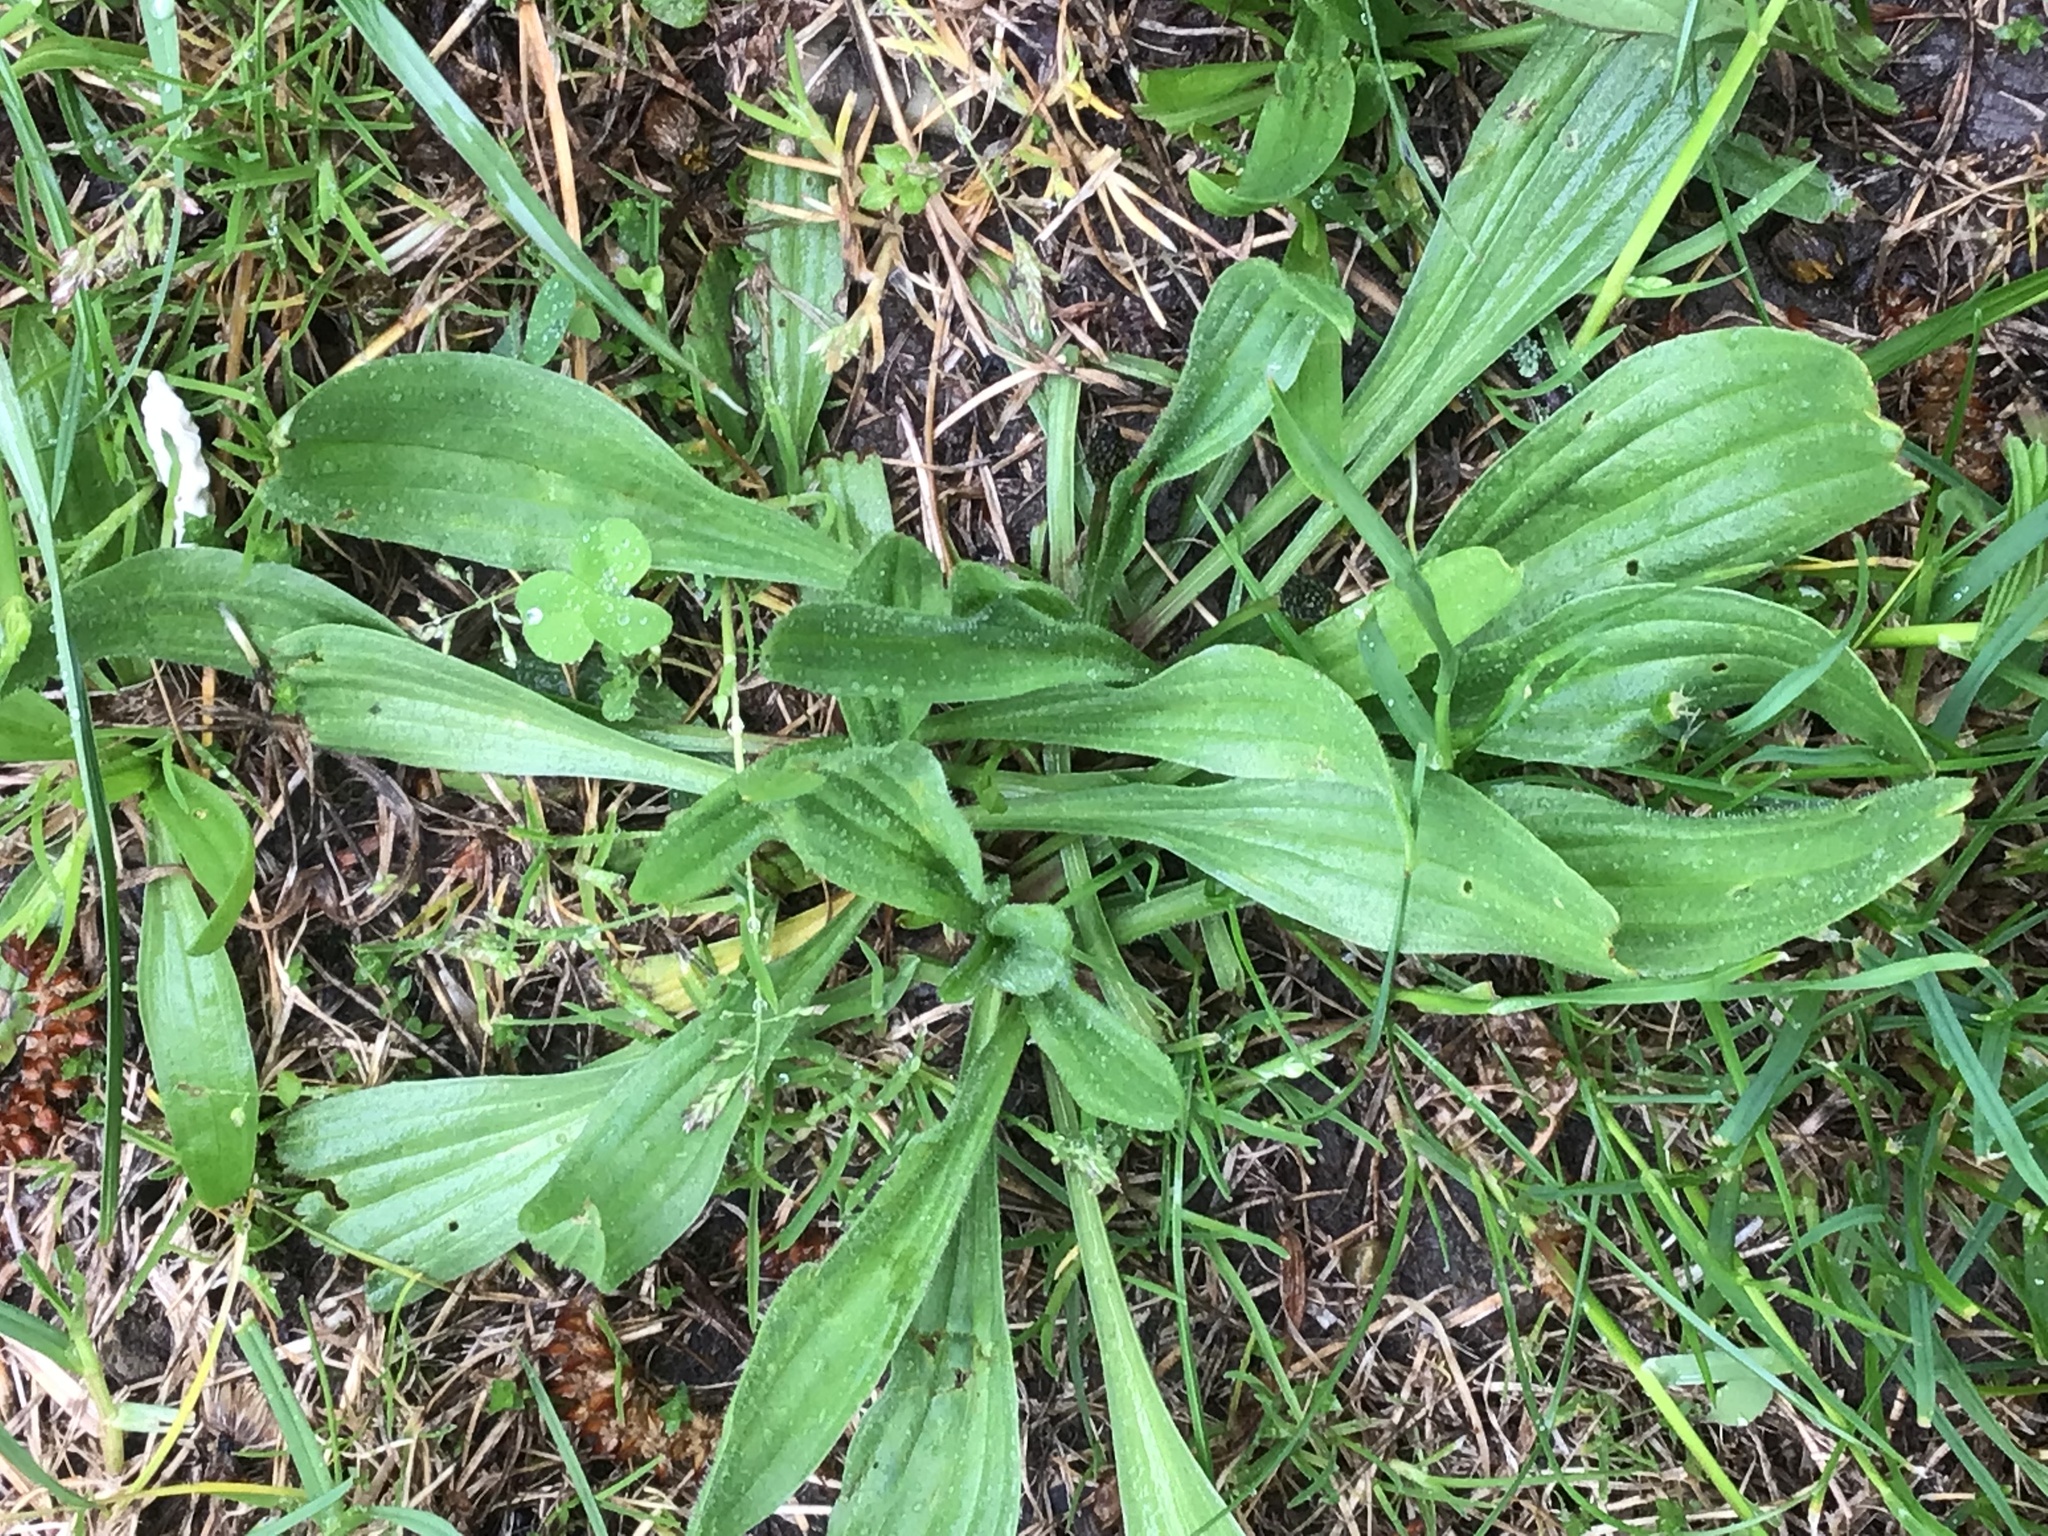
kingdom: Plantae
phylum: Tracheophyta
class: Magnoliopsida
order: Lamiales
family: Plantaginaceae
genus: Plantago
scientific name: Plantago lanceolata
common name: Ribwort plantain
